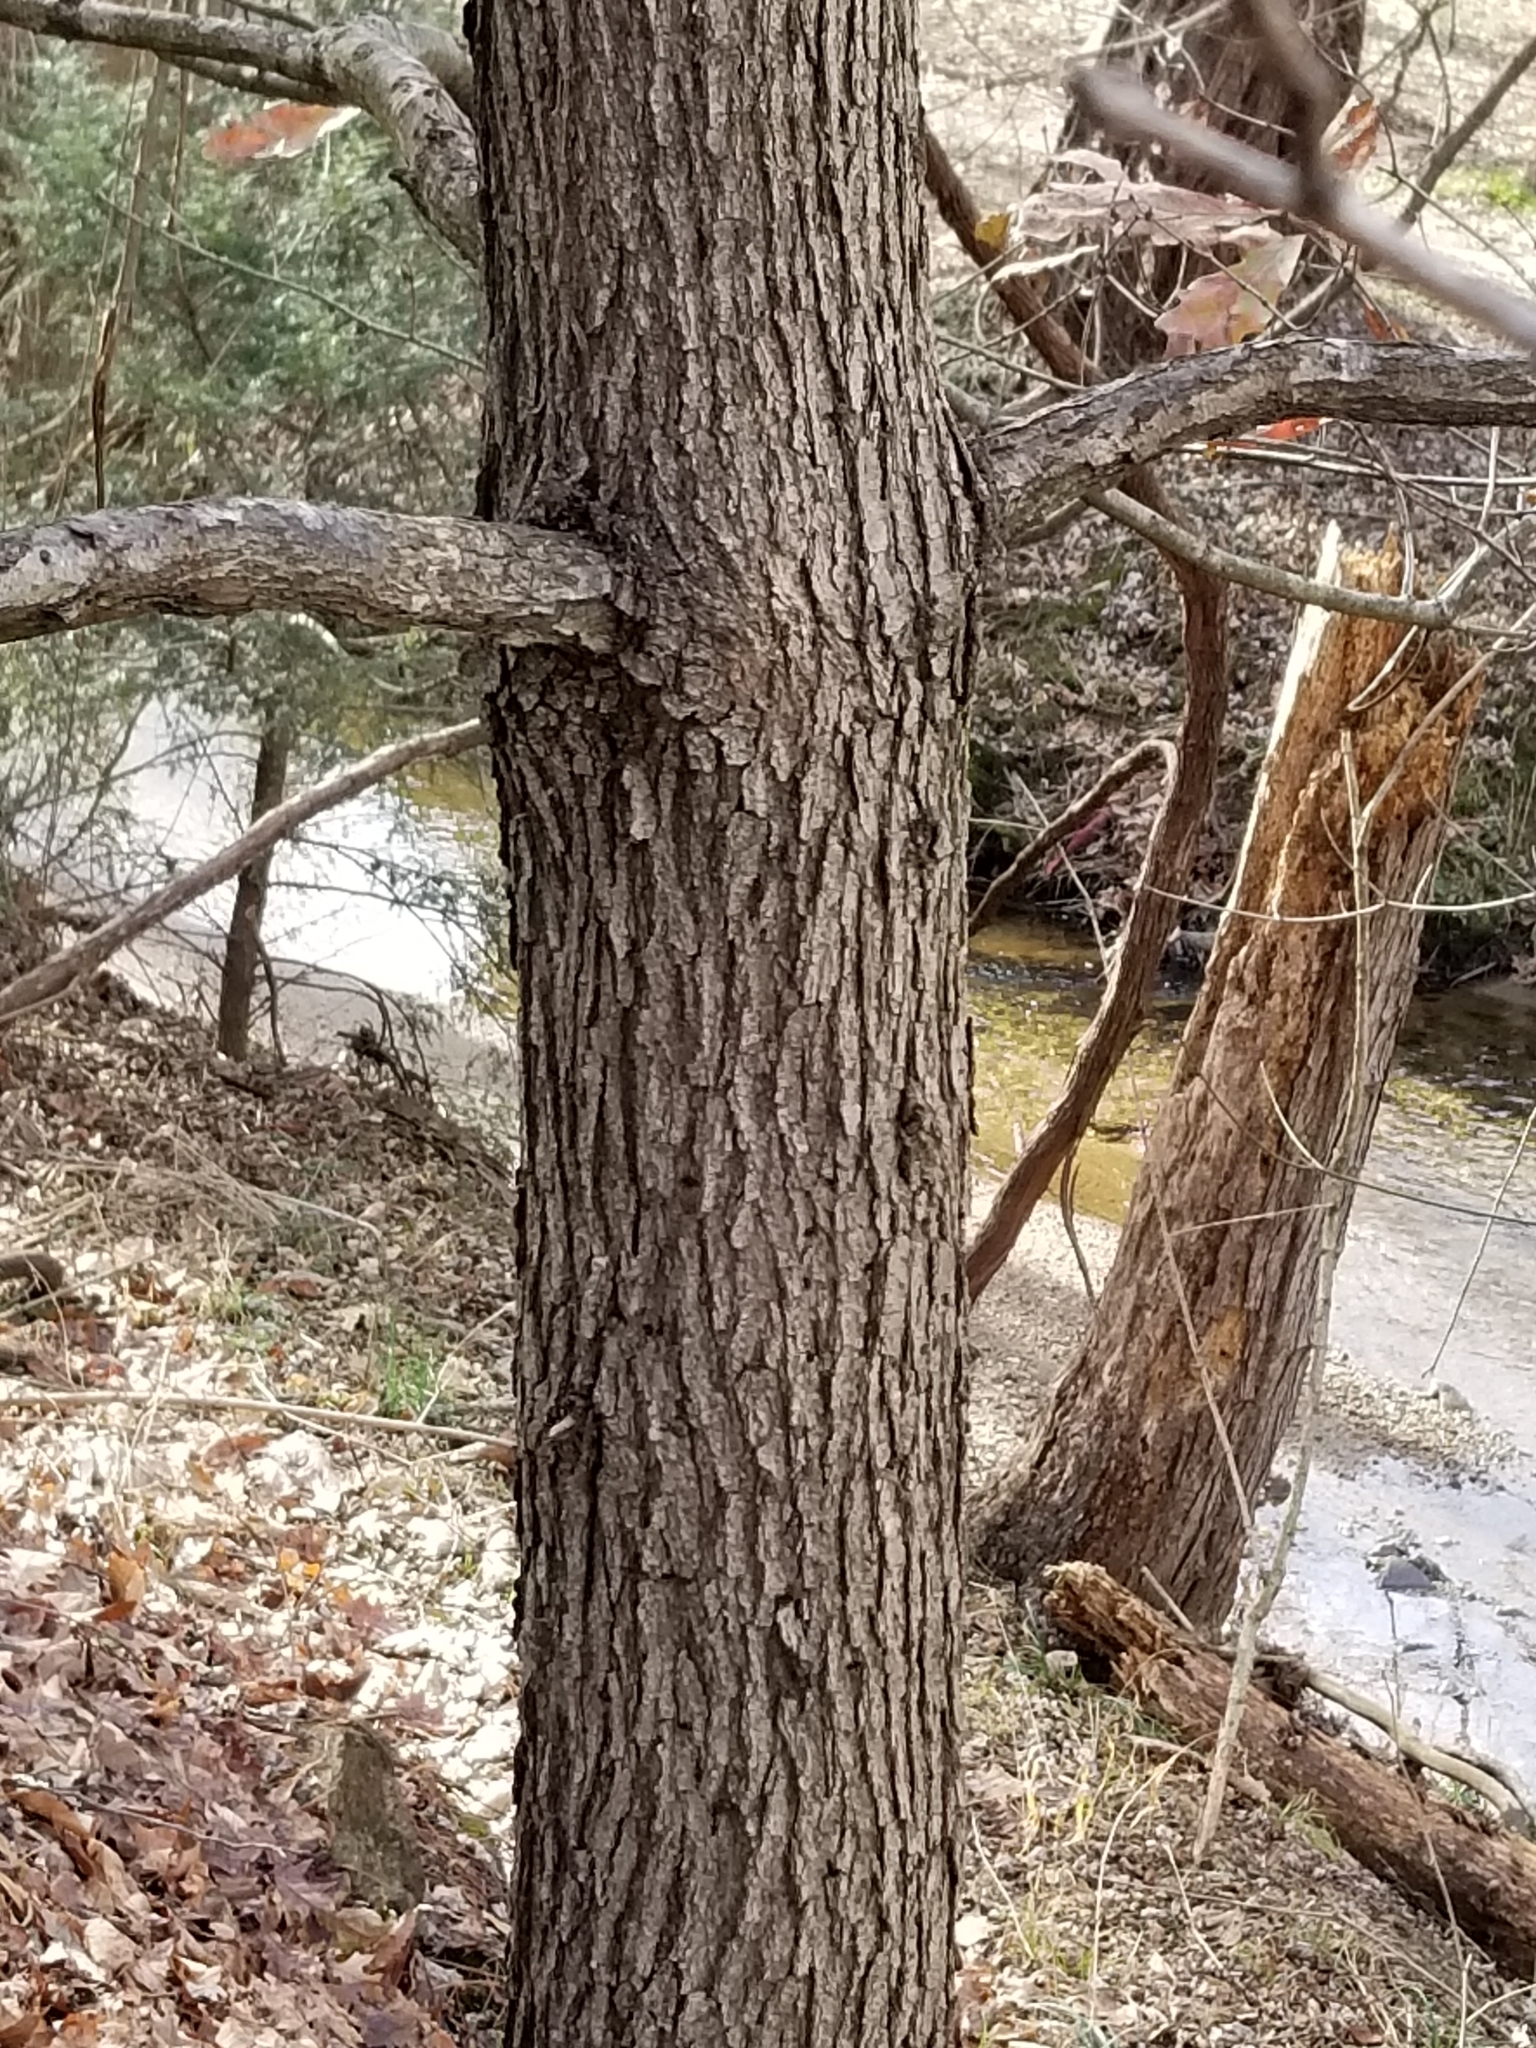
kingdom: Plantae
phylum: Tracheophyta
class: Magnoliopsida
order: Fagales
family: Fagaceae
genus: Quercus
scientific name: Quercus alba
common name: White oak
